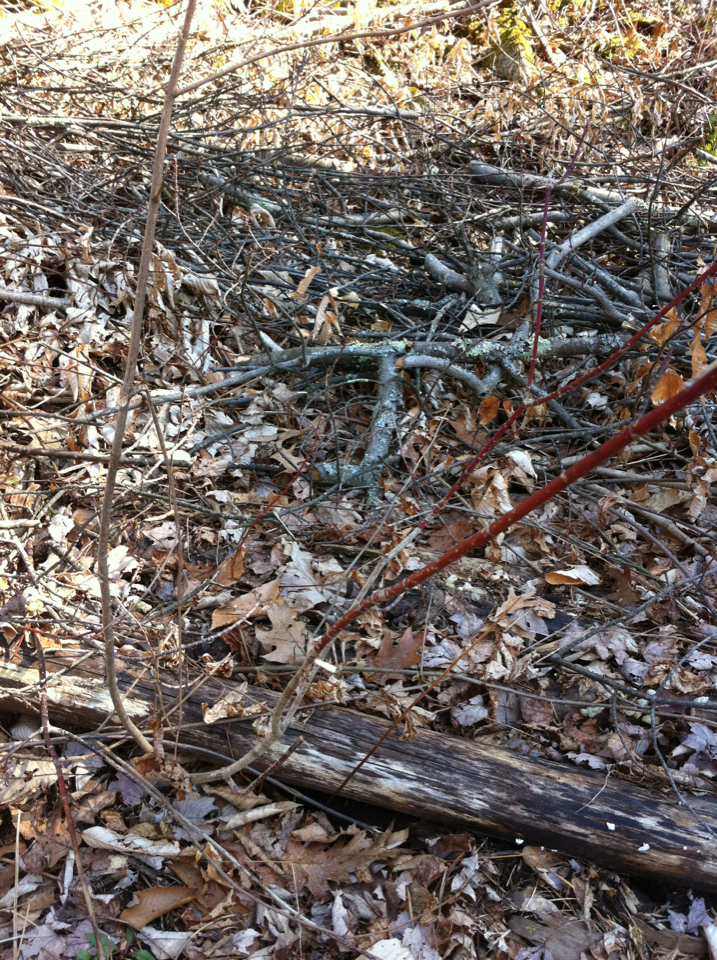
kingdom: Plantae
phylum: Tracheophyta
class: Magnoliopsida
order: Sapindales
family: Sapindaceae
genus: Acer
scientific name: Acer spicatum
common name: Mountain maple
